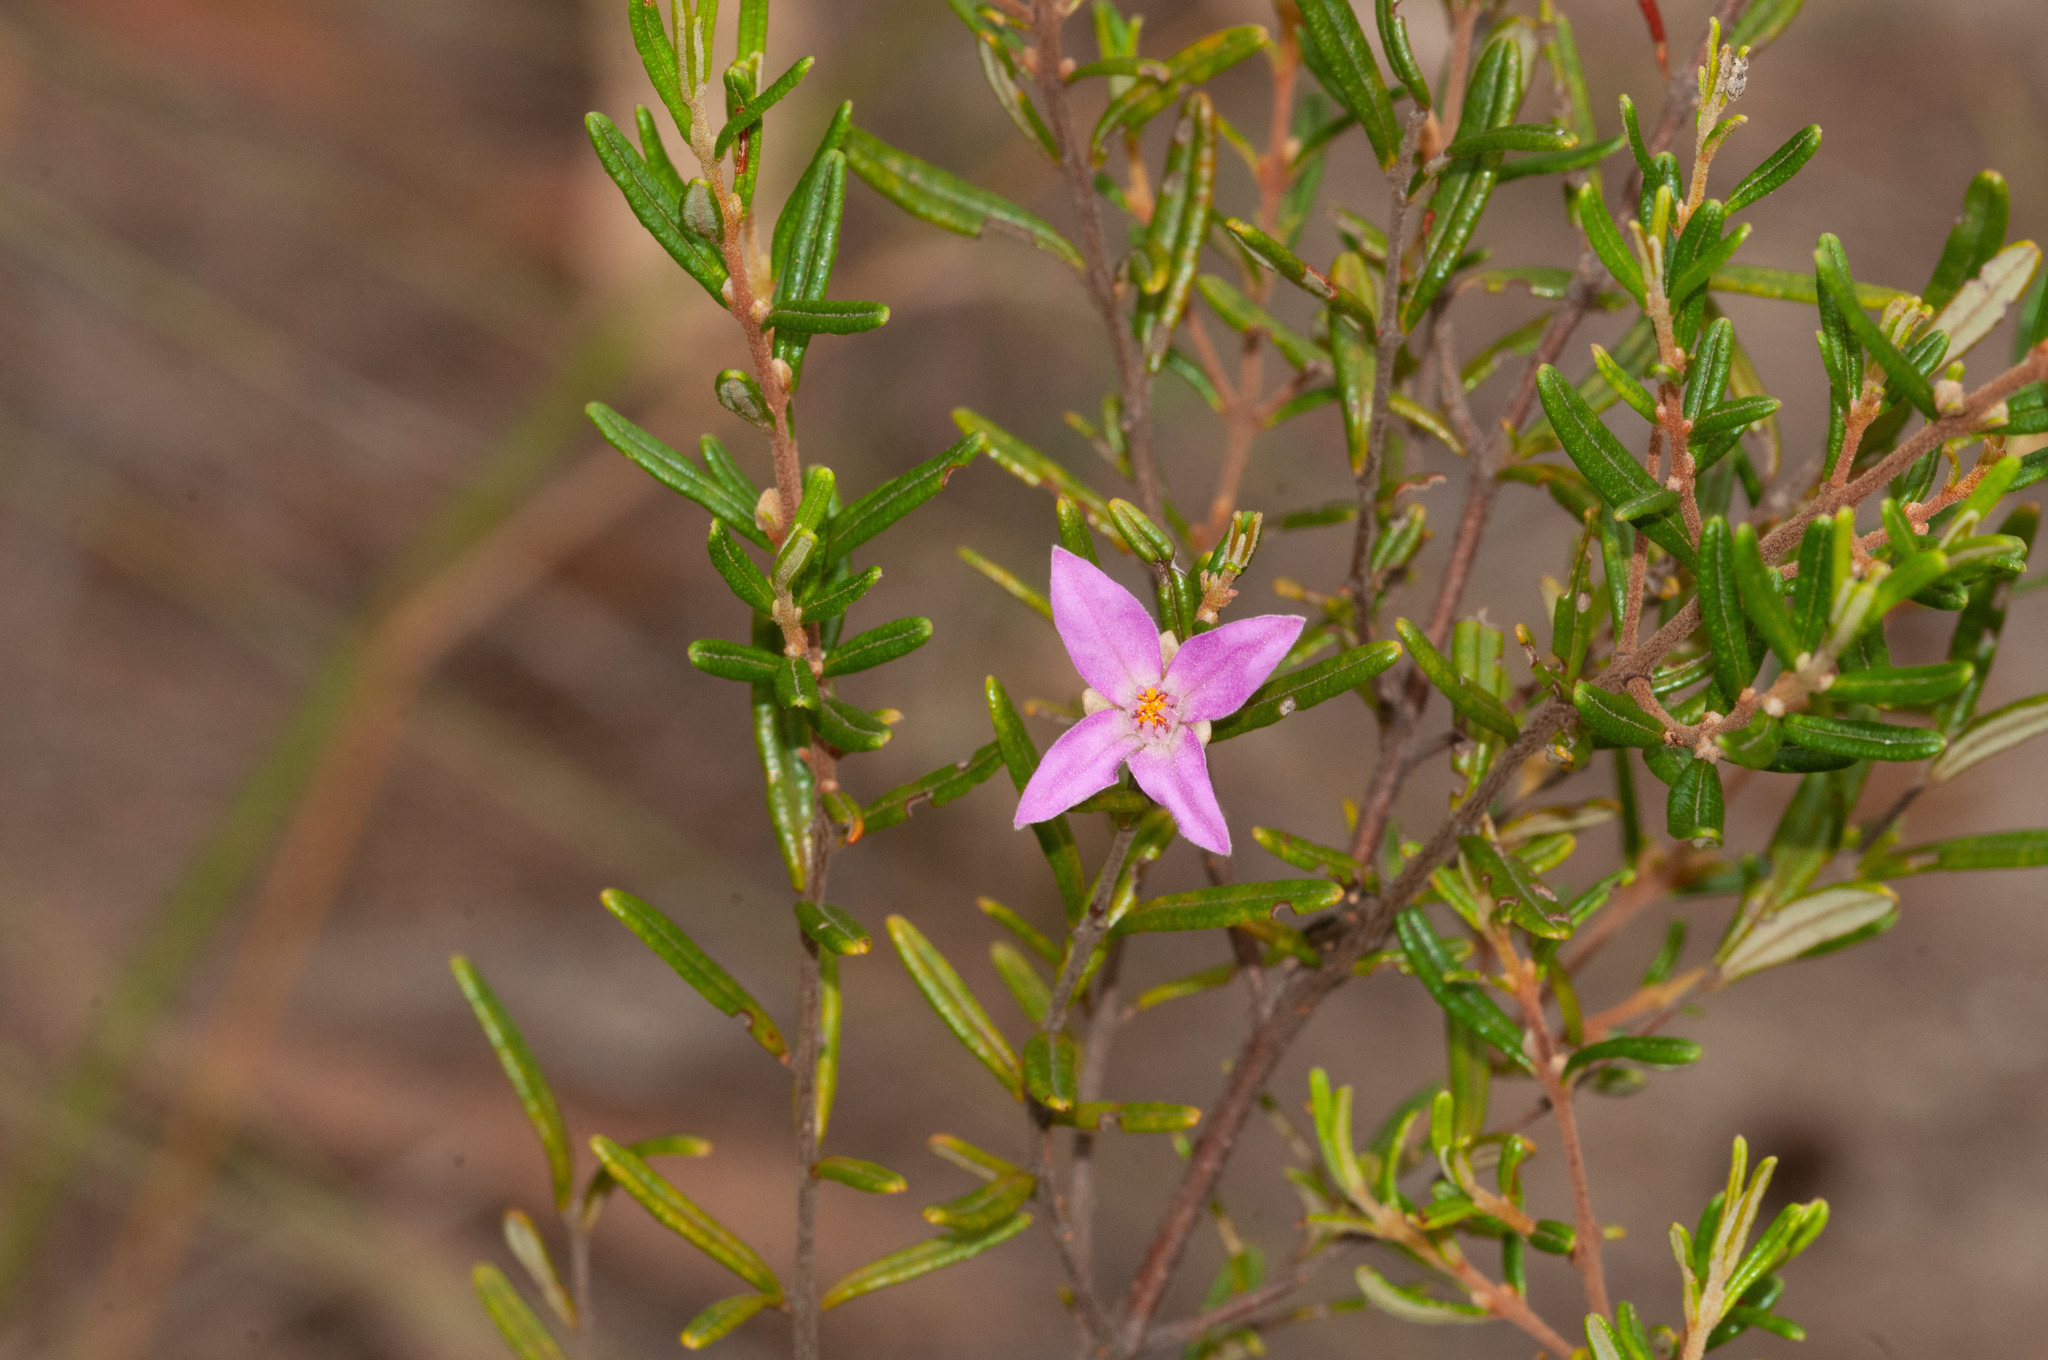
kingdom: Plantae
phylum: Tracheophyta
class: Magnoliopsida
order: Sapindales
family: Rutaceae
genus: Boronia
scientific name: Boronia rosmarinifolia
